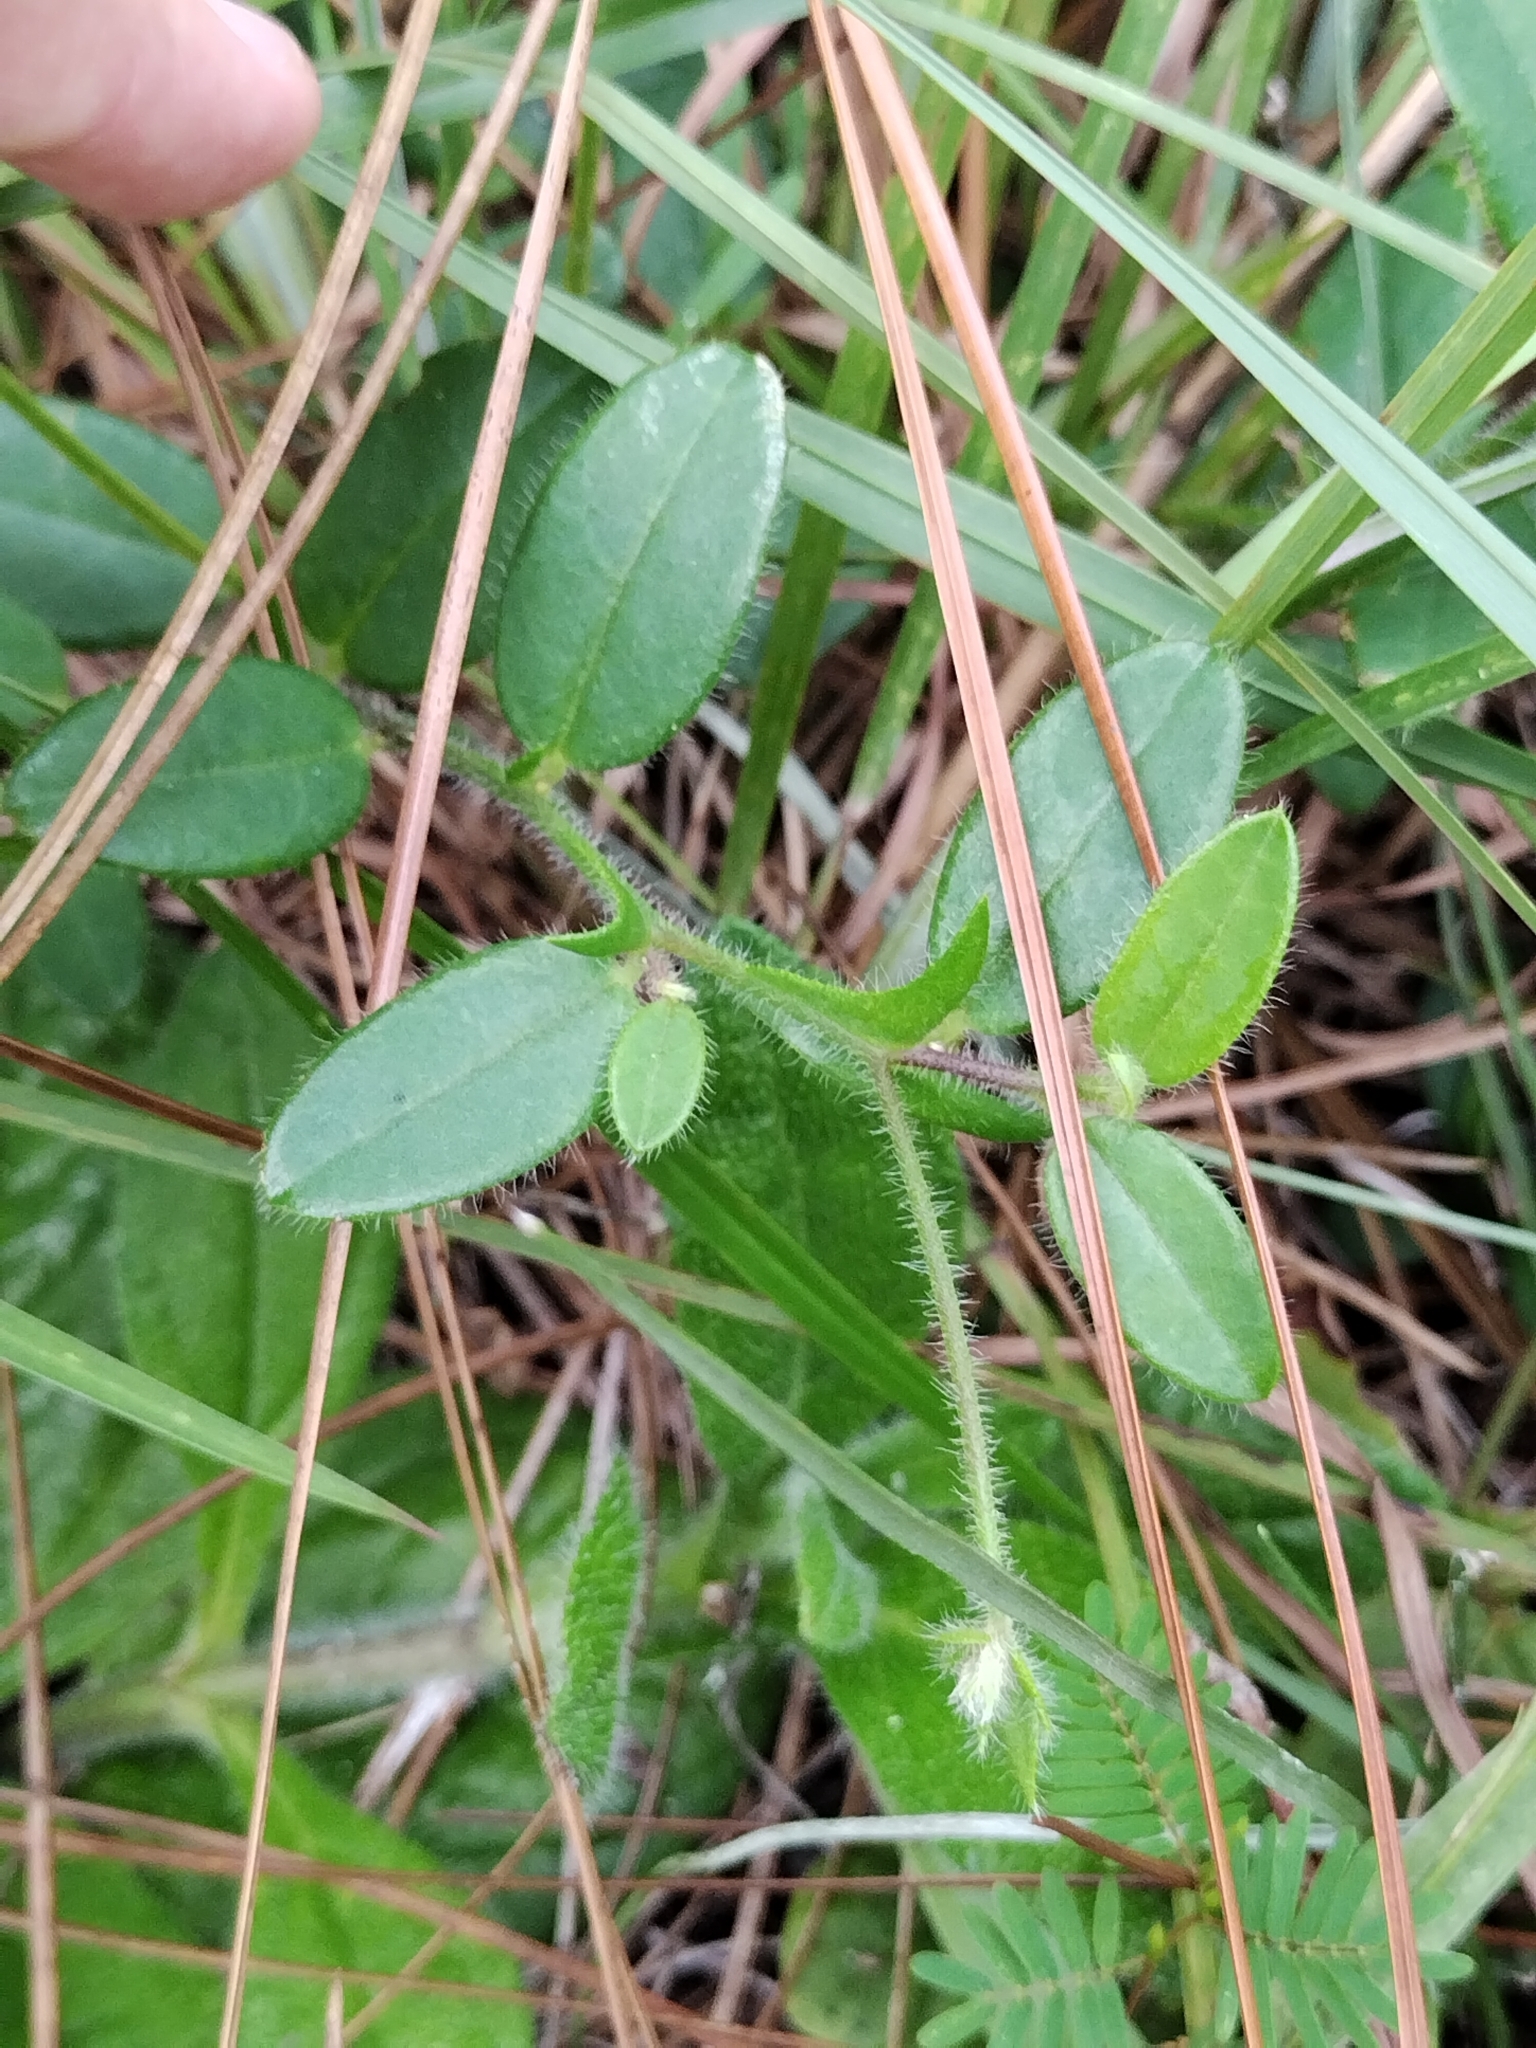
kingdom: Plantae
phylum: Tracheophyta
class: Magnoliopsida
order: Fabales
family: Fabaceae
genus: Crotalaria
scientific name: Crotalaria rotundifolia
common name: Prostrate rattlebox
